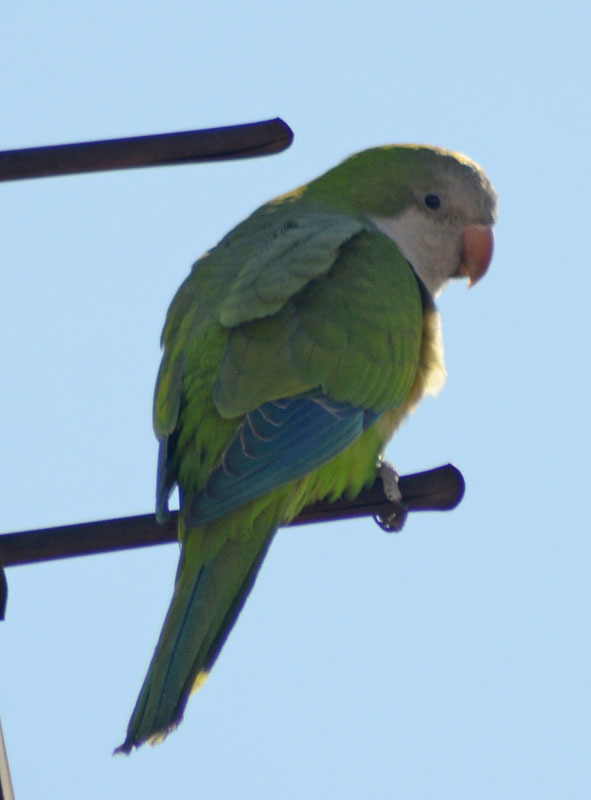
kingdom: Animalia
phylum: Chordata
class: Aves
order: Psittaciformes
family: Psittacidae
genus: Myiopsitta
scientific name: Myiopsitta monachus
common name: Monk parakeet
